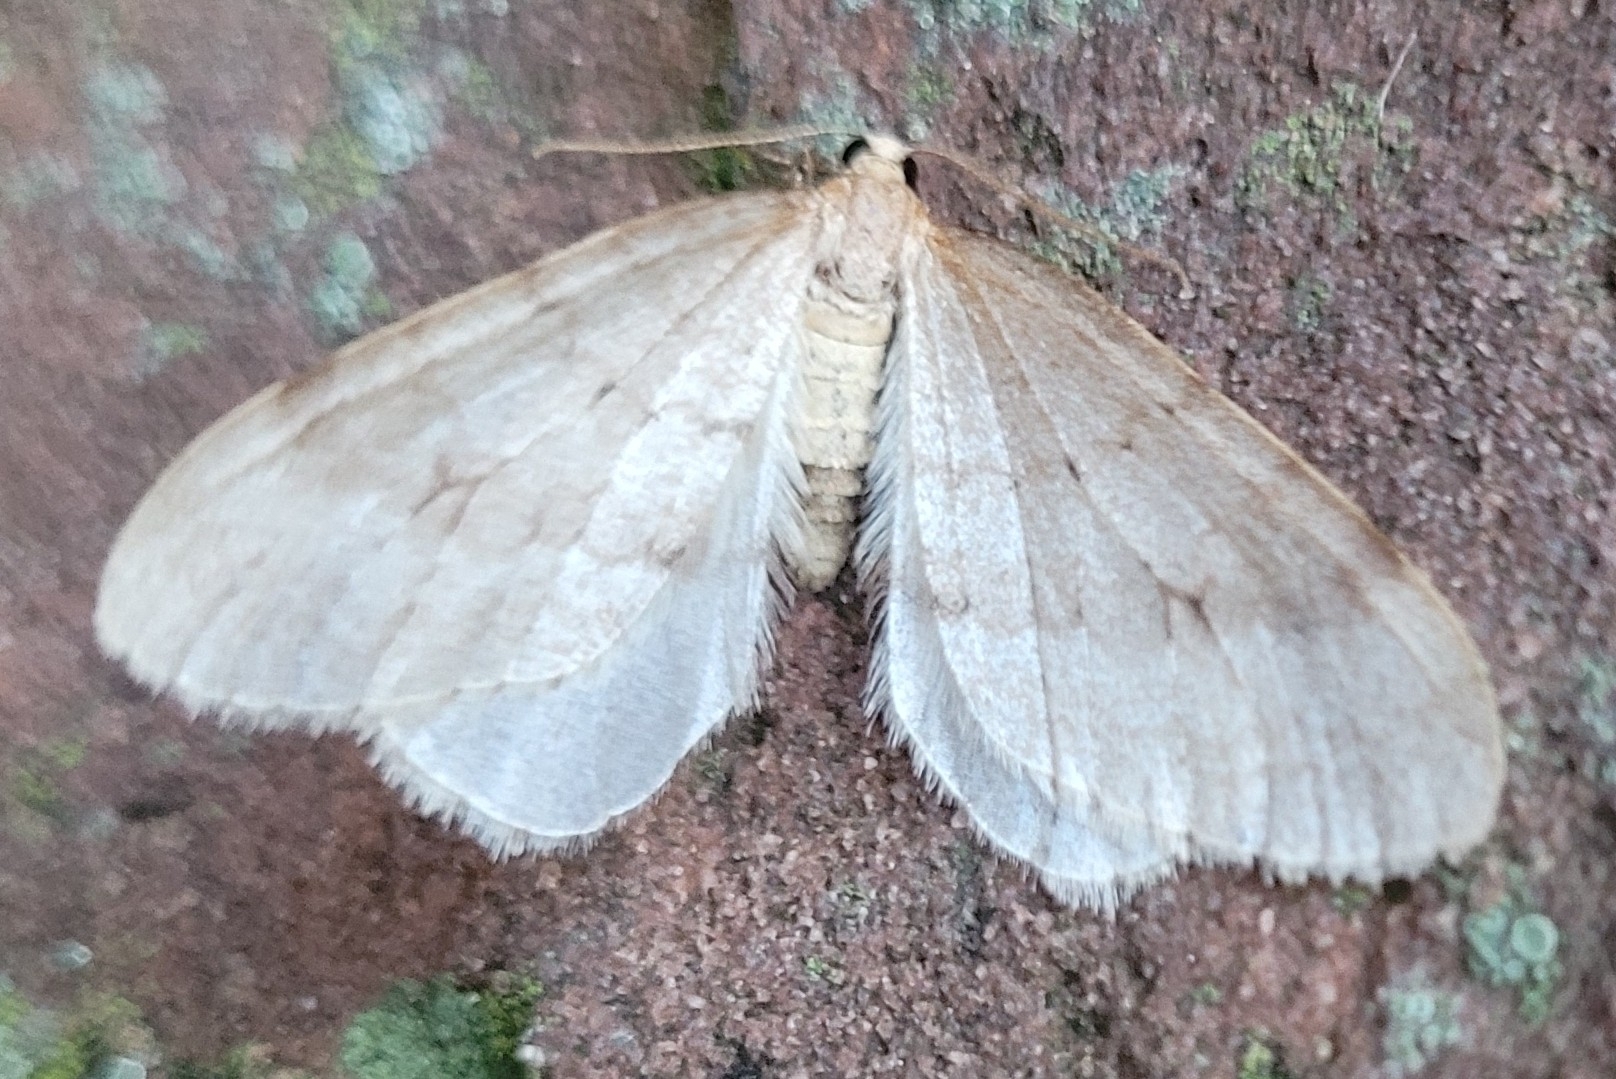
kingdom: Animalia
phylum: Arthropoda
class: Insecta
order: Lepidoptera
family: Geometridae
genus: Operophtera
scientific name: Operophtera fagata
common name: Northern winter moth
